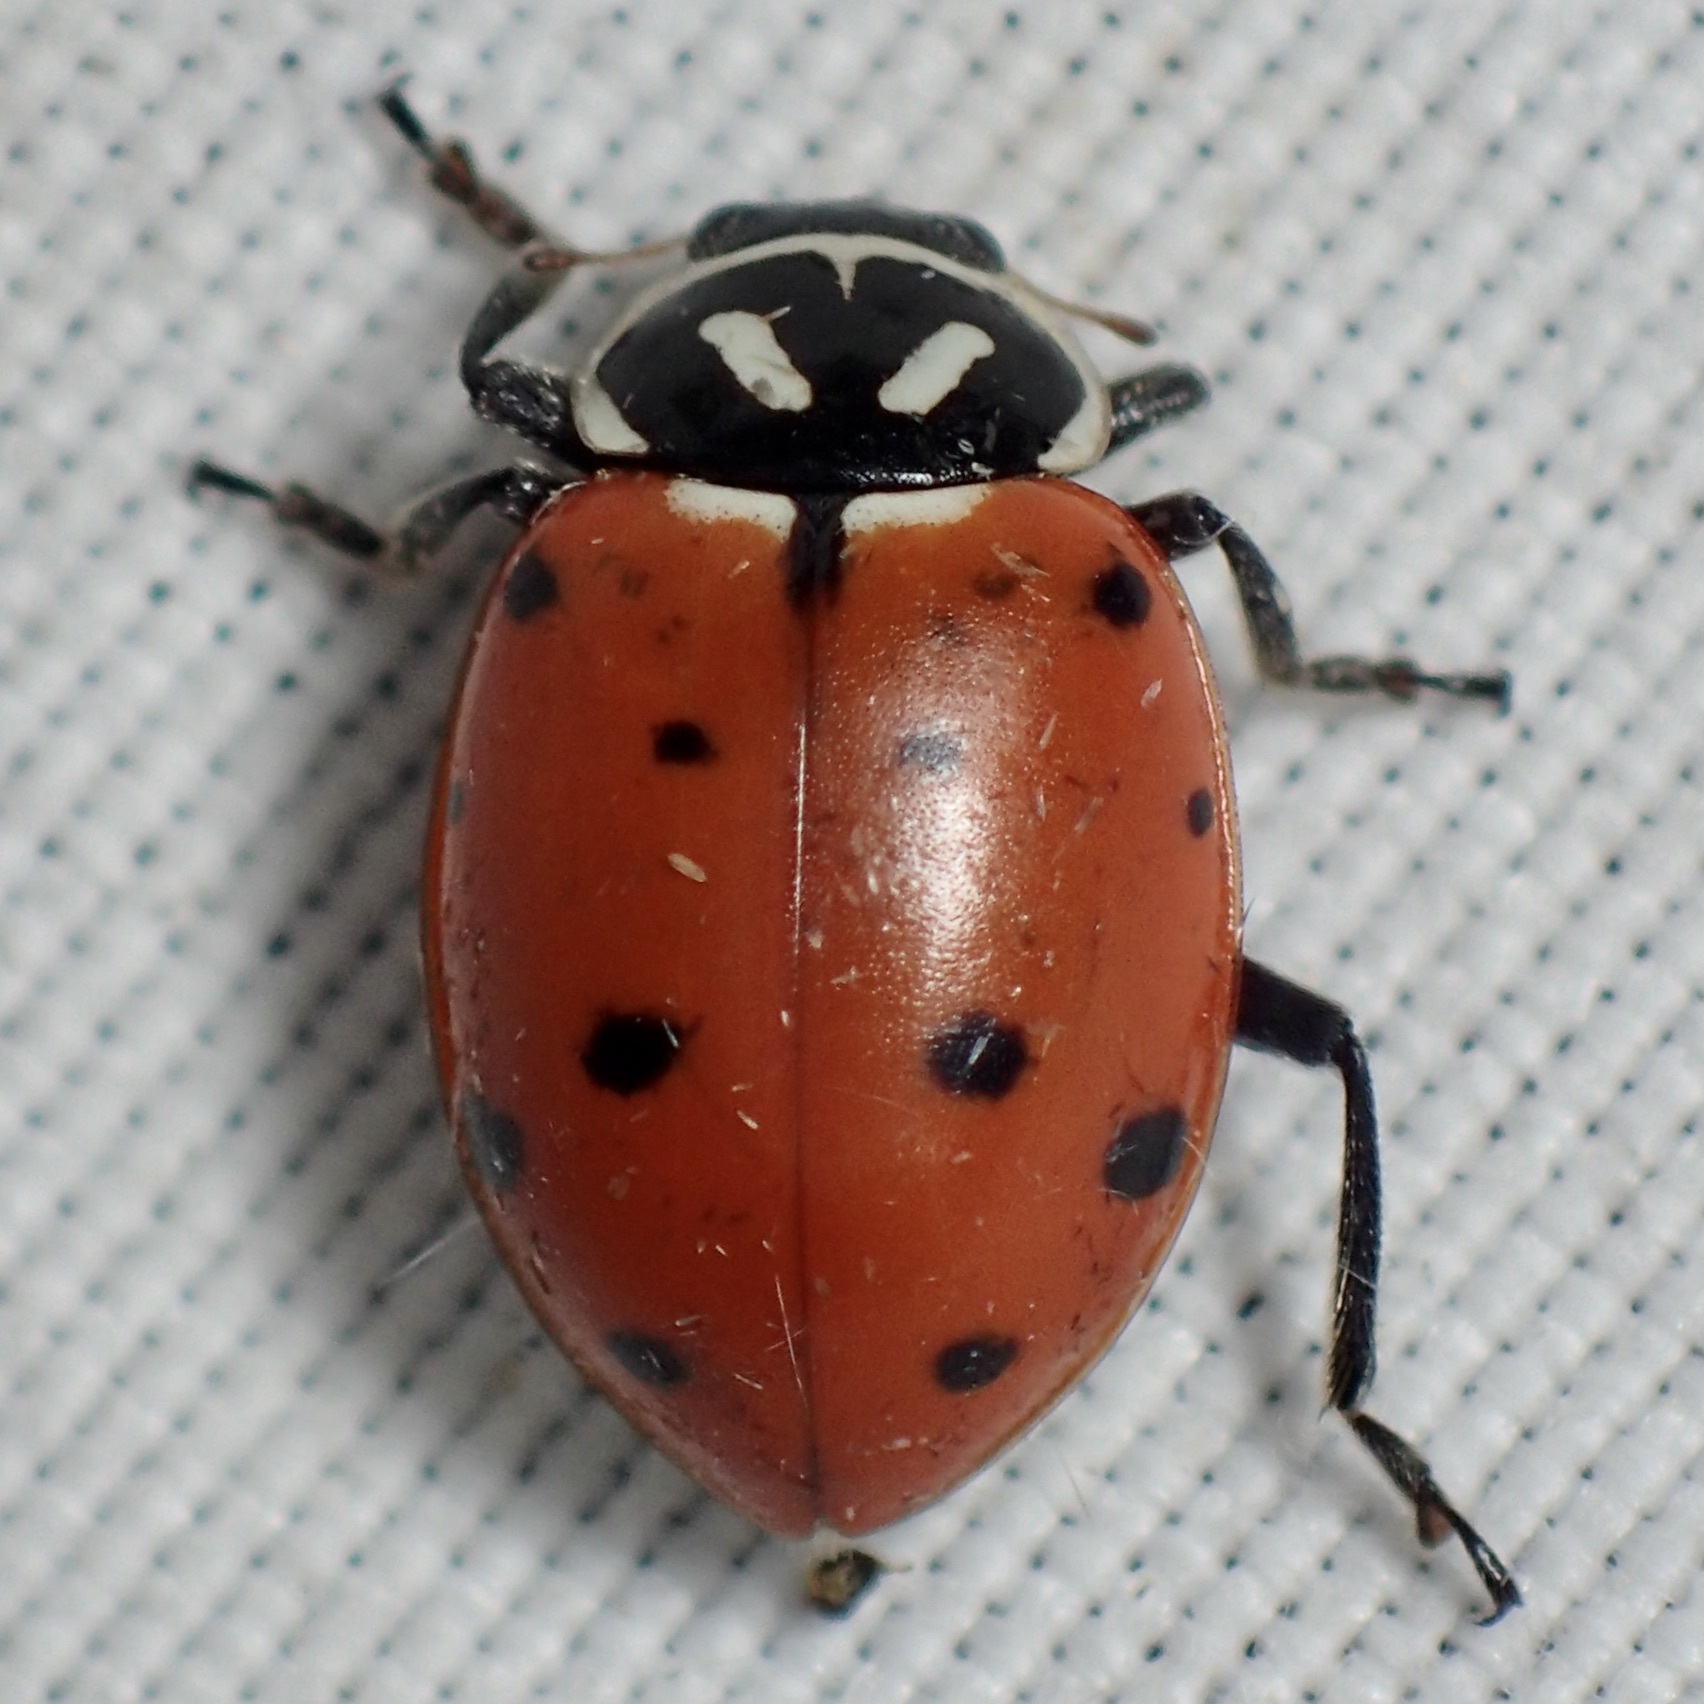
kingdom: Animalia
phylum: Arthropoda
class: Insecta
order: Coleoptera
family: Coccinellidae
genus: Hippodamia
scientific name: Hippodamia convergens
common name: Convergent lady beetle
